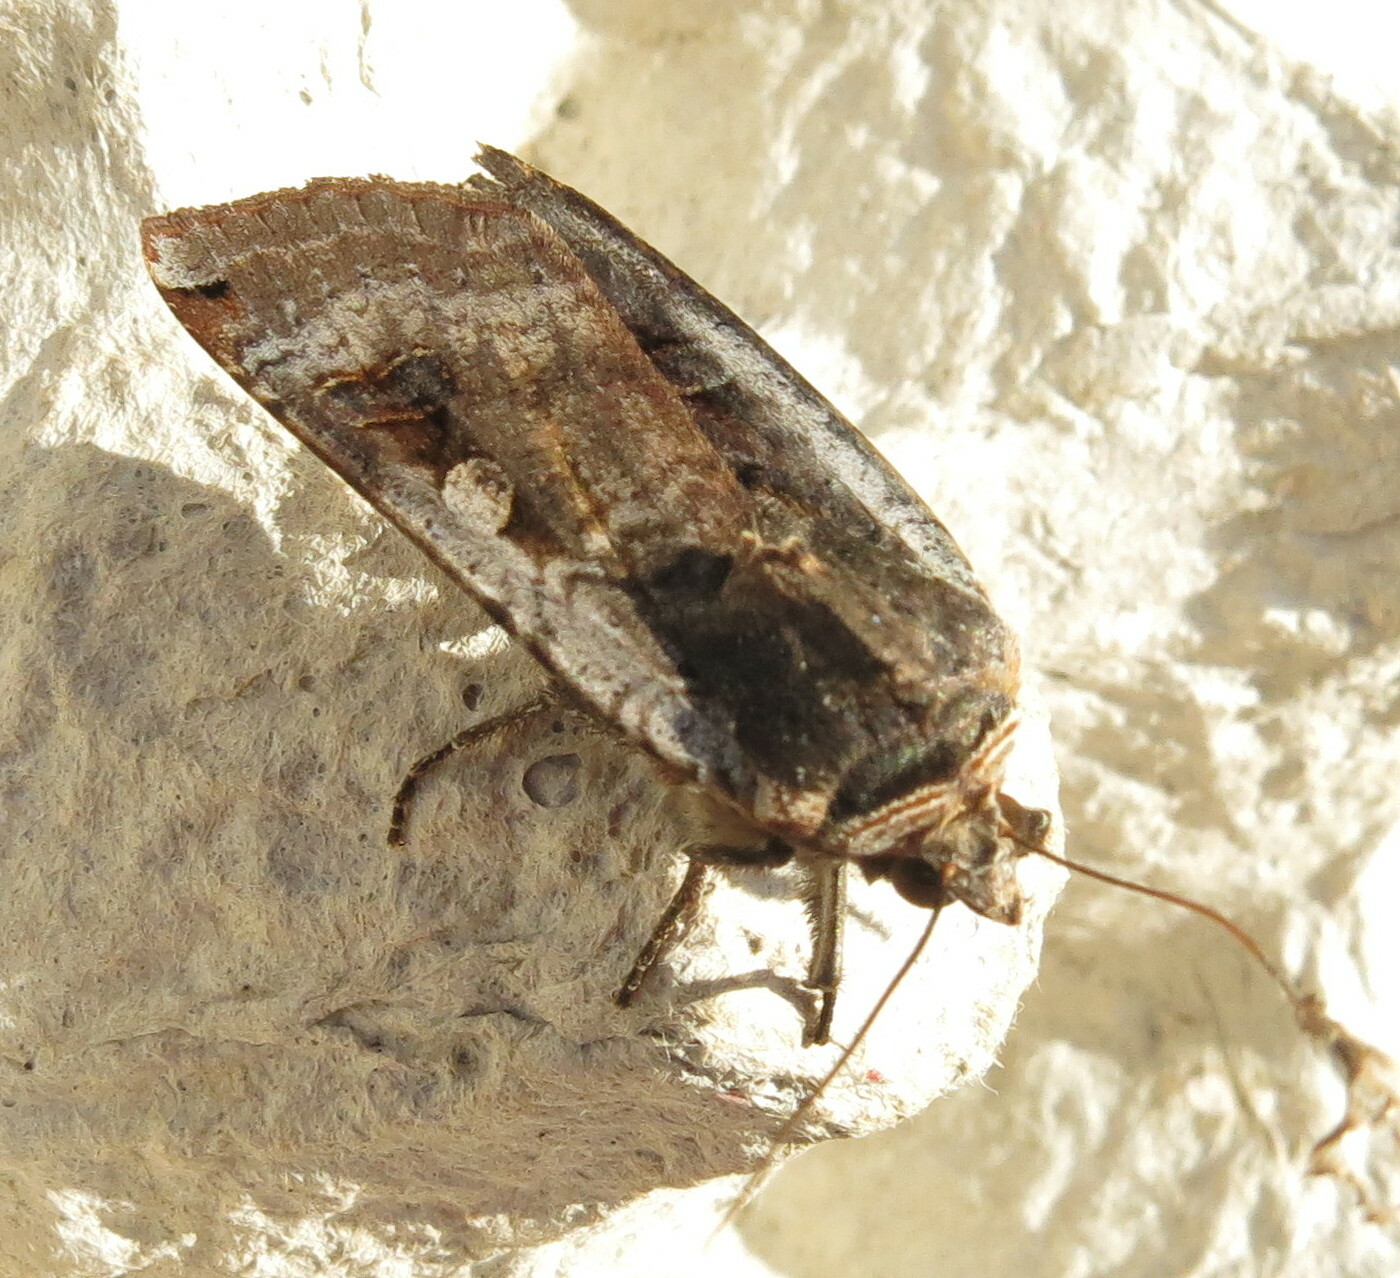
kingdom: Animalia
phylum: Arthropoda
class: Insecta
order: Lepidoptera
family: Noctuidae
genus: Noctua
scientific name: Noctua pronuba
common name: Large yellow underwing
